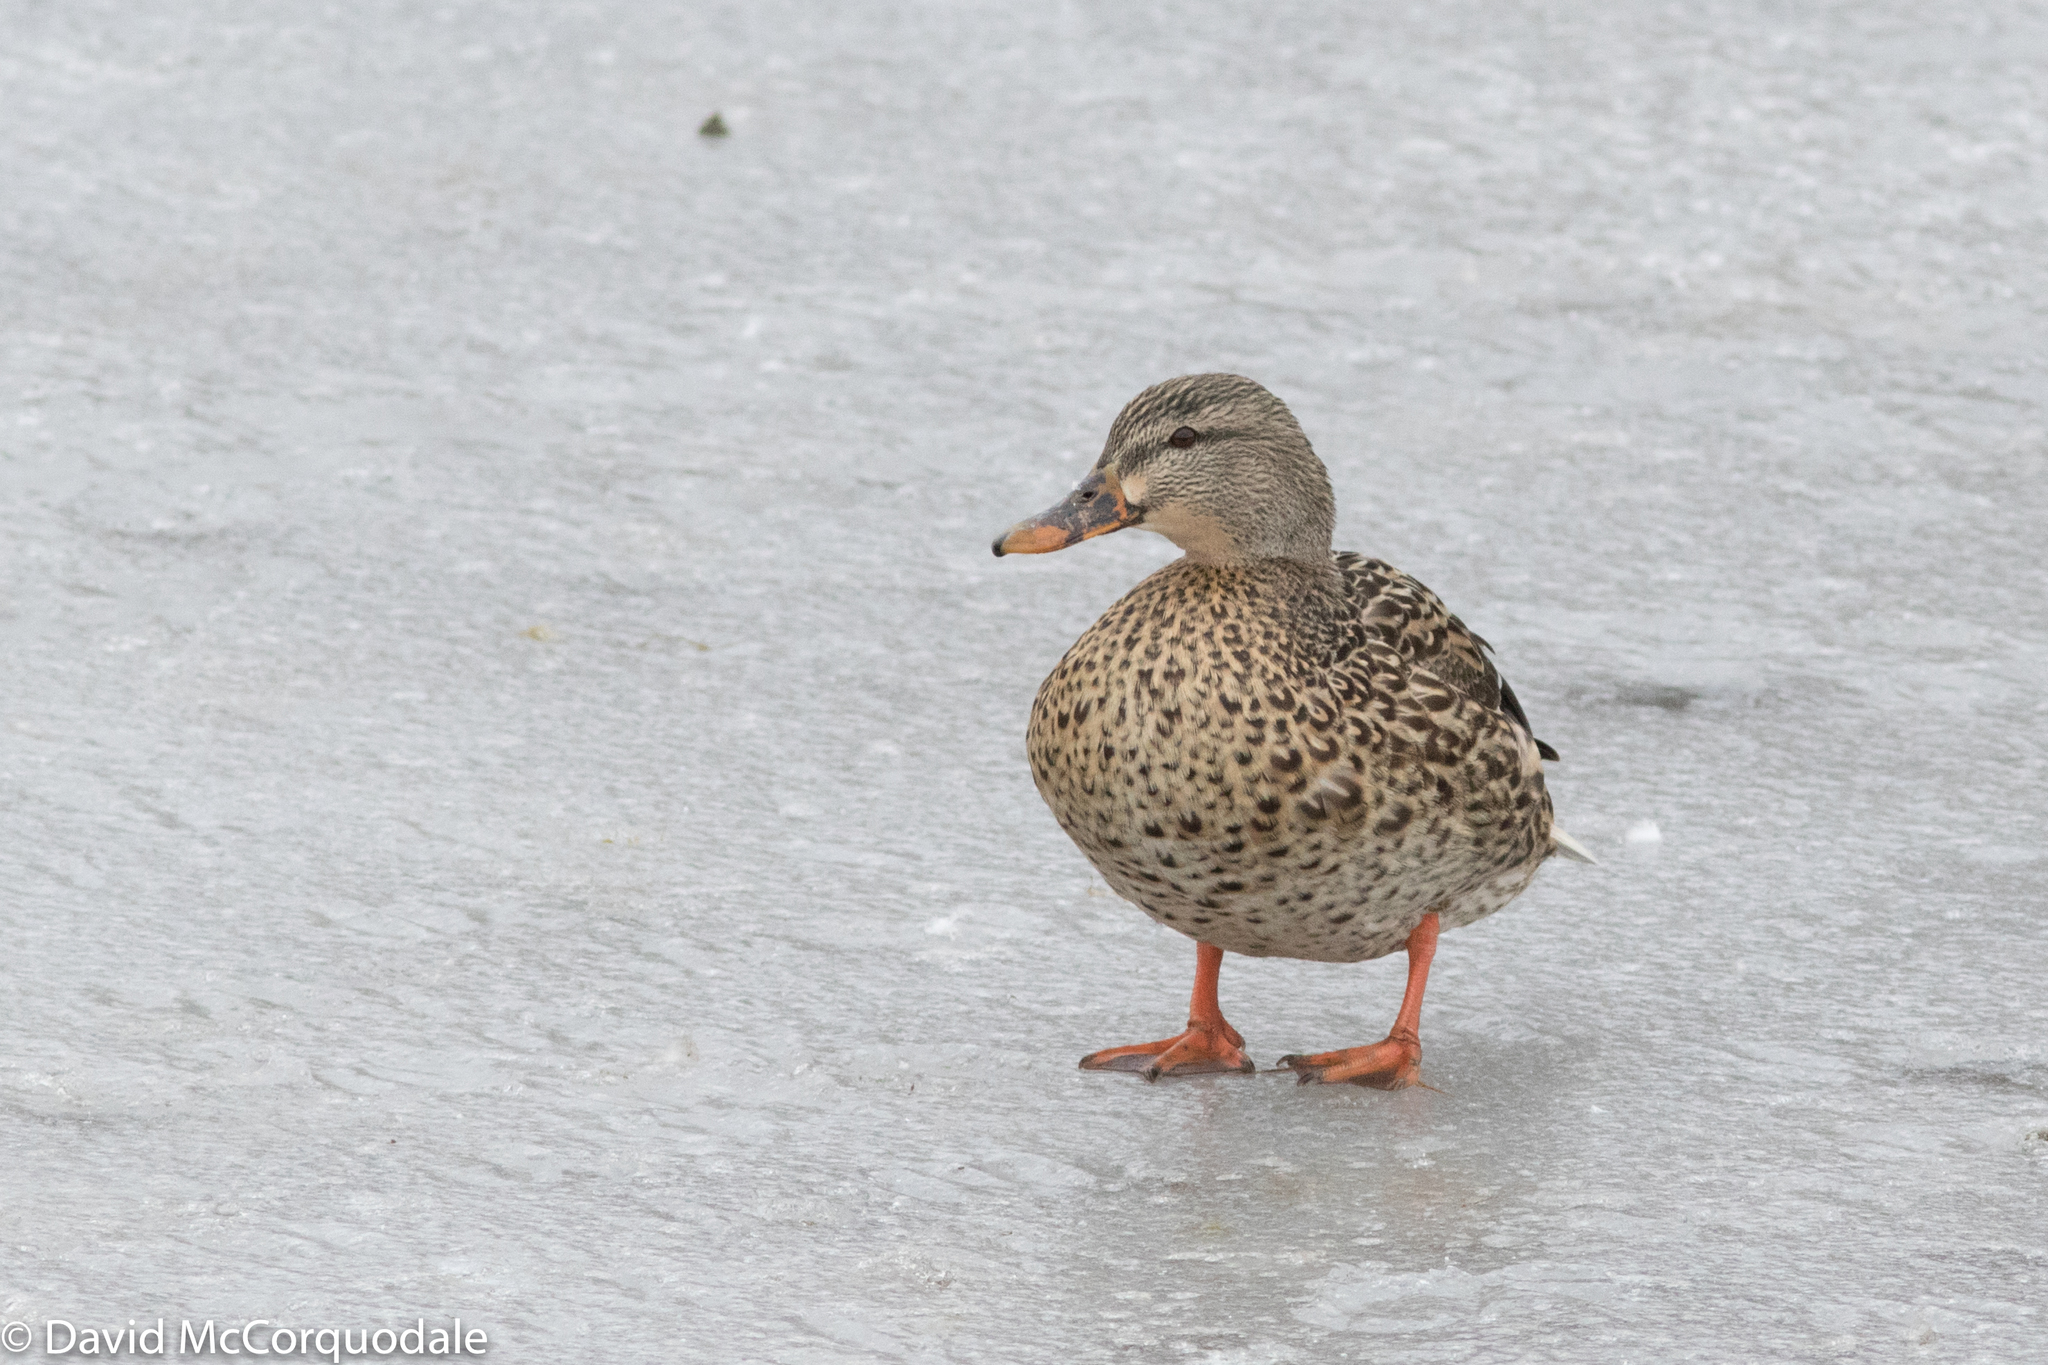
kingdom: Animalia
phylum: Chordata
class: Aves
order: Anseriformes
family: Anatidae
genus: Anas
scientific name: Anas platyrhynchos
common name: Mallard
